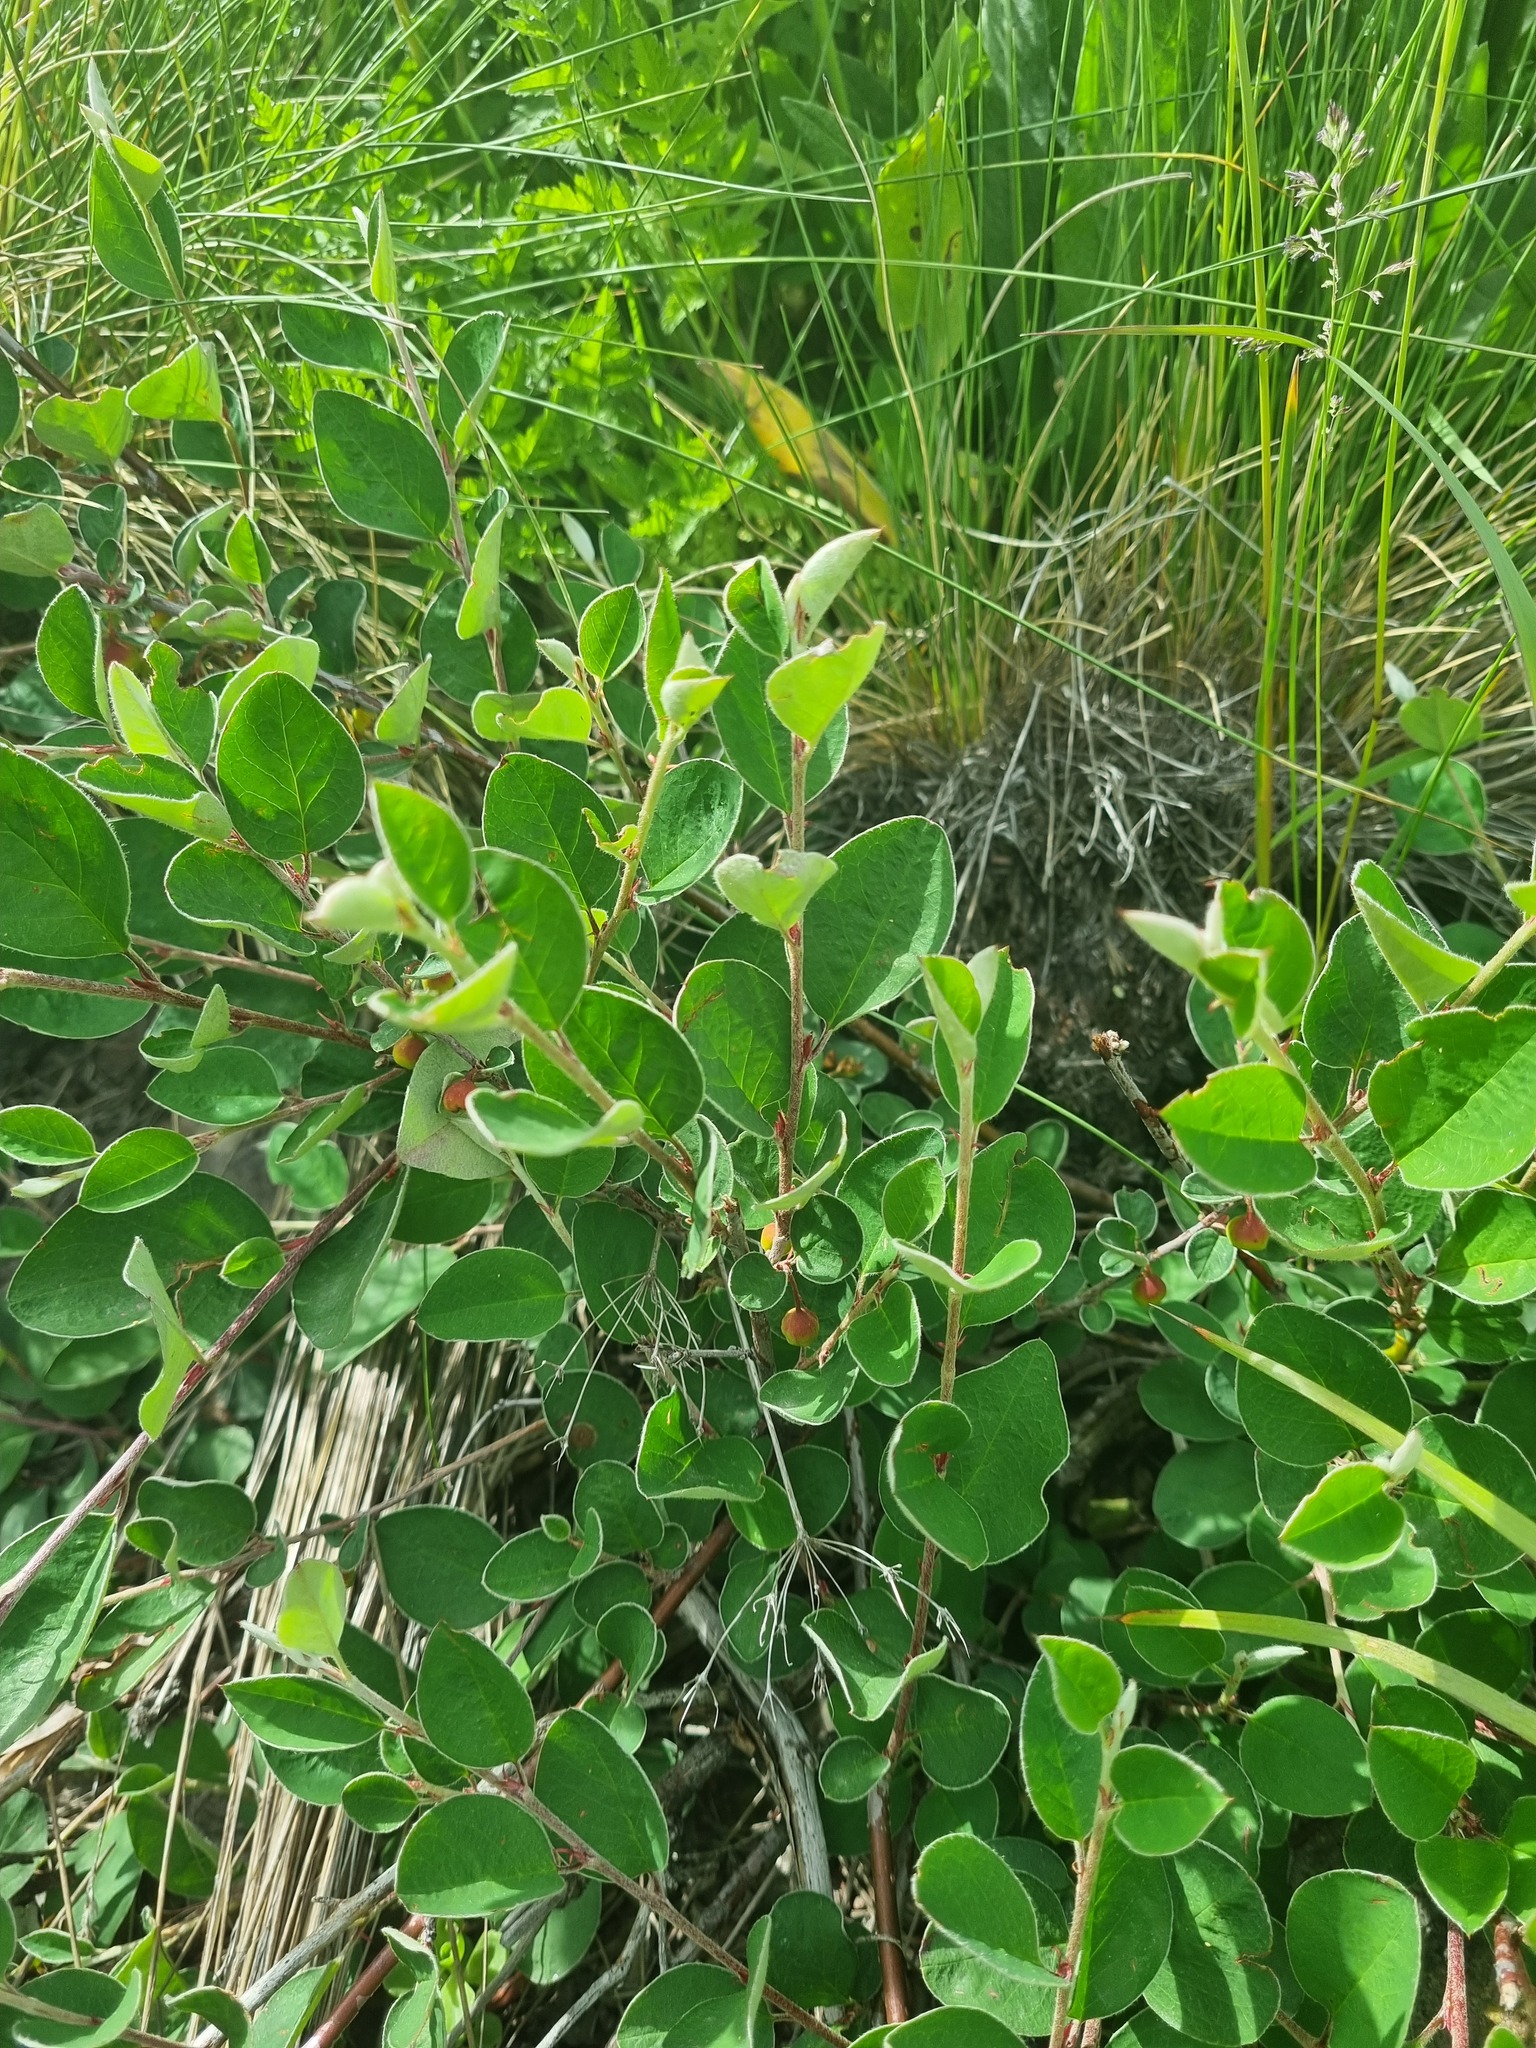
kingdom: Plantae
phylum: Tracheophyta
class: Magnoliopsida
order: Rosales
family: Rosaceae
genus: Cotoneaster
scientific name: Cotoneaster integerrimus
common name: Wild cotoneaster
